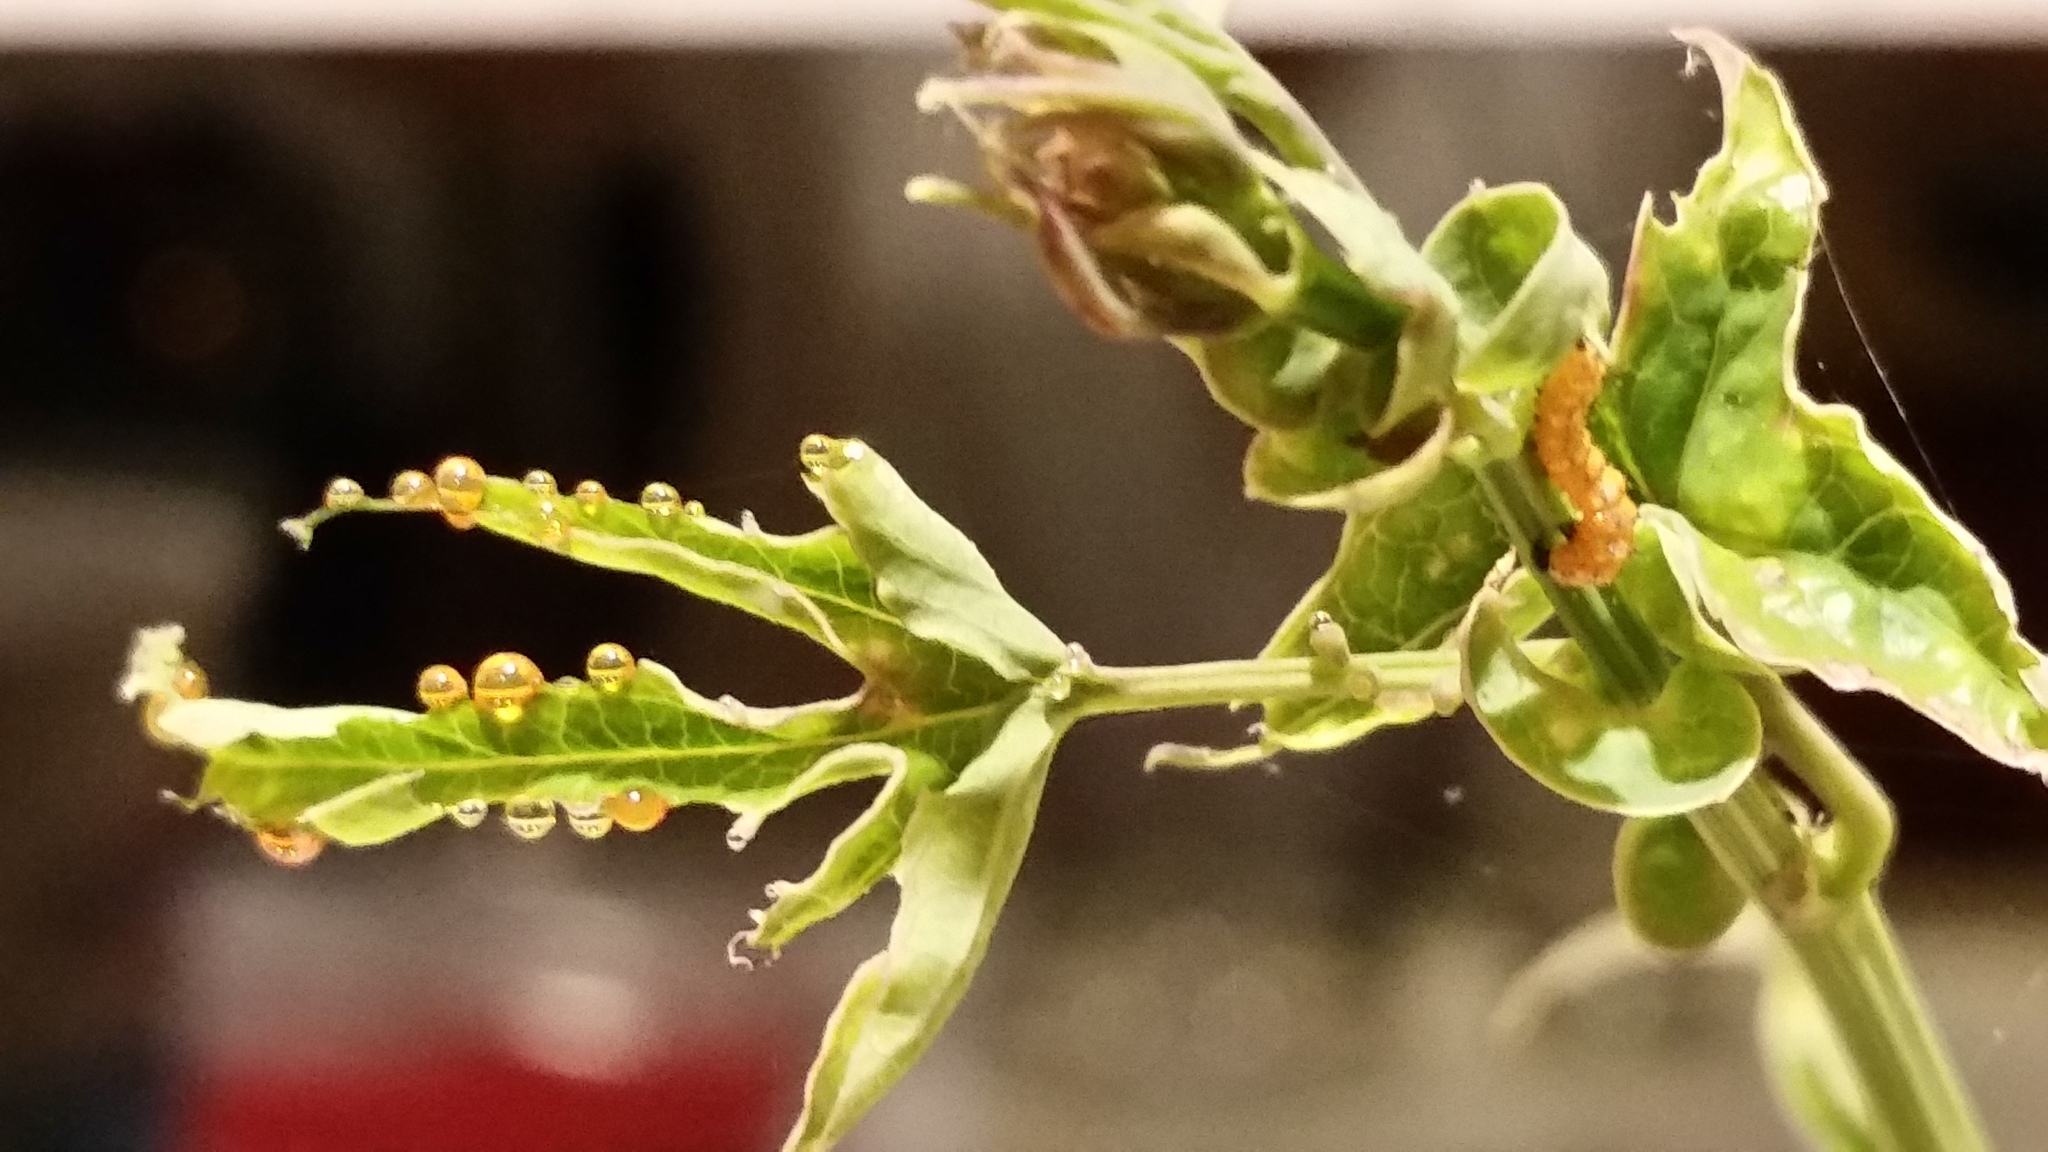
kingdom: Animalia
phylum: Arthropoda
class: Insecta
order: Lepidoptera
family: Nymphalidae
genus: Dione
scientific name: Dione vanillae
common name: Gulf fritillary
